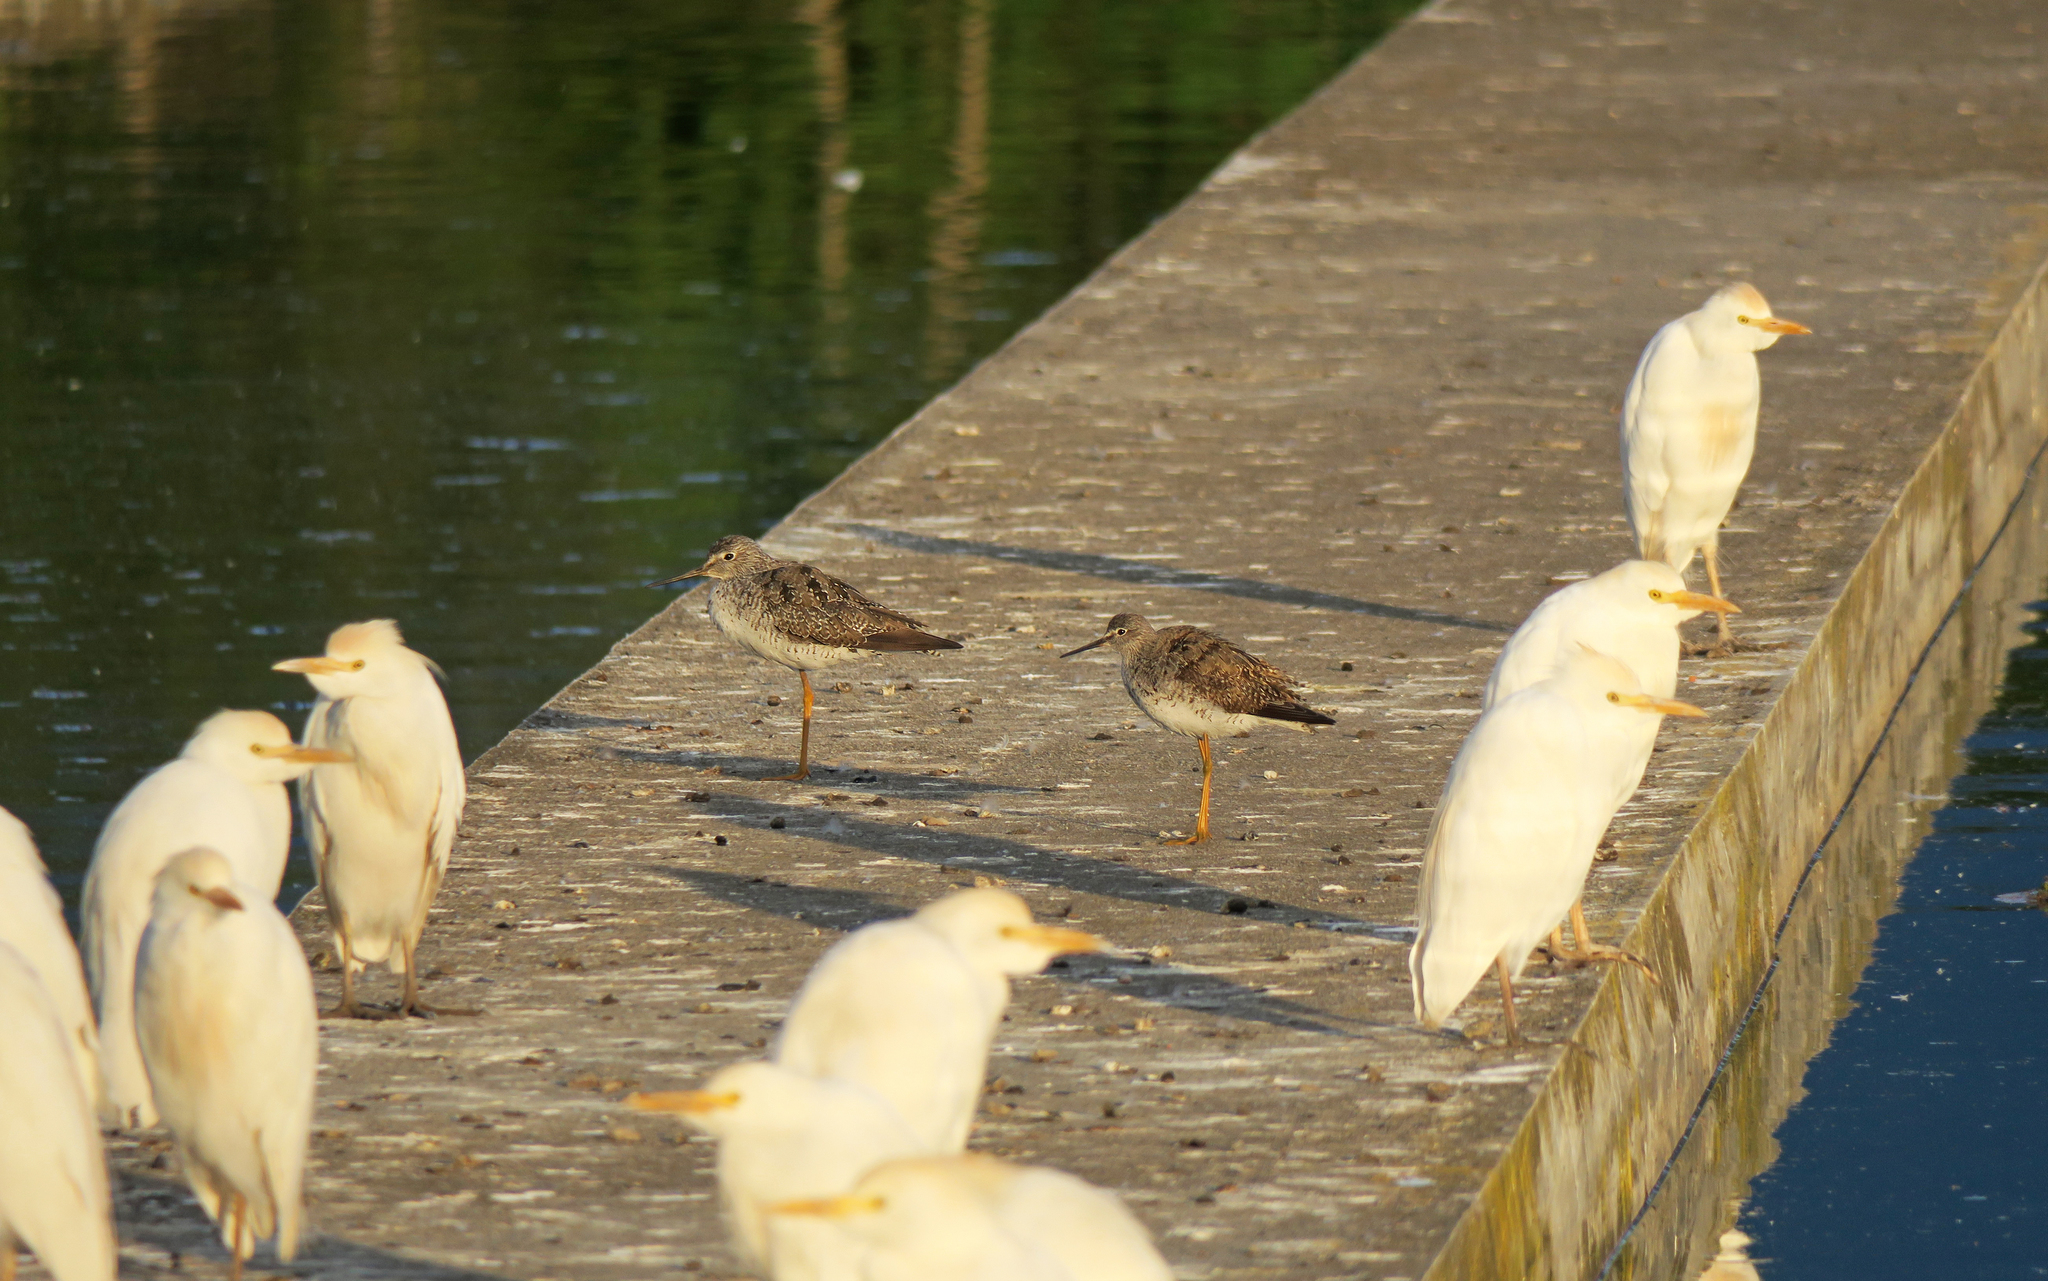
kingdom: Animalia
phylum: Chordata
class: Aves
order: Pelecaniformes
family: Ardeidae
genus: Bubulcus
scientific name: Bubulcus ibis
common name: Cattle egret
